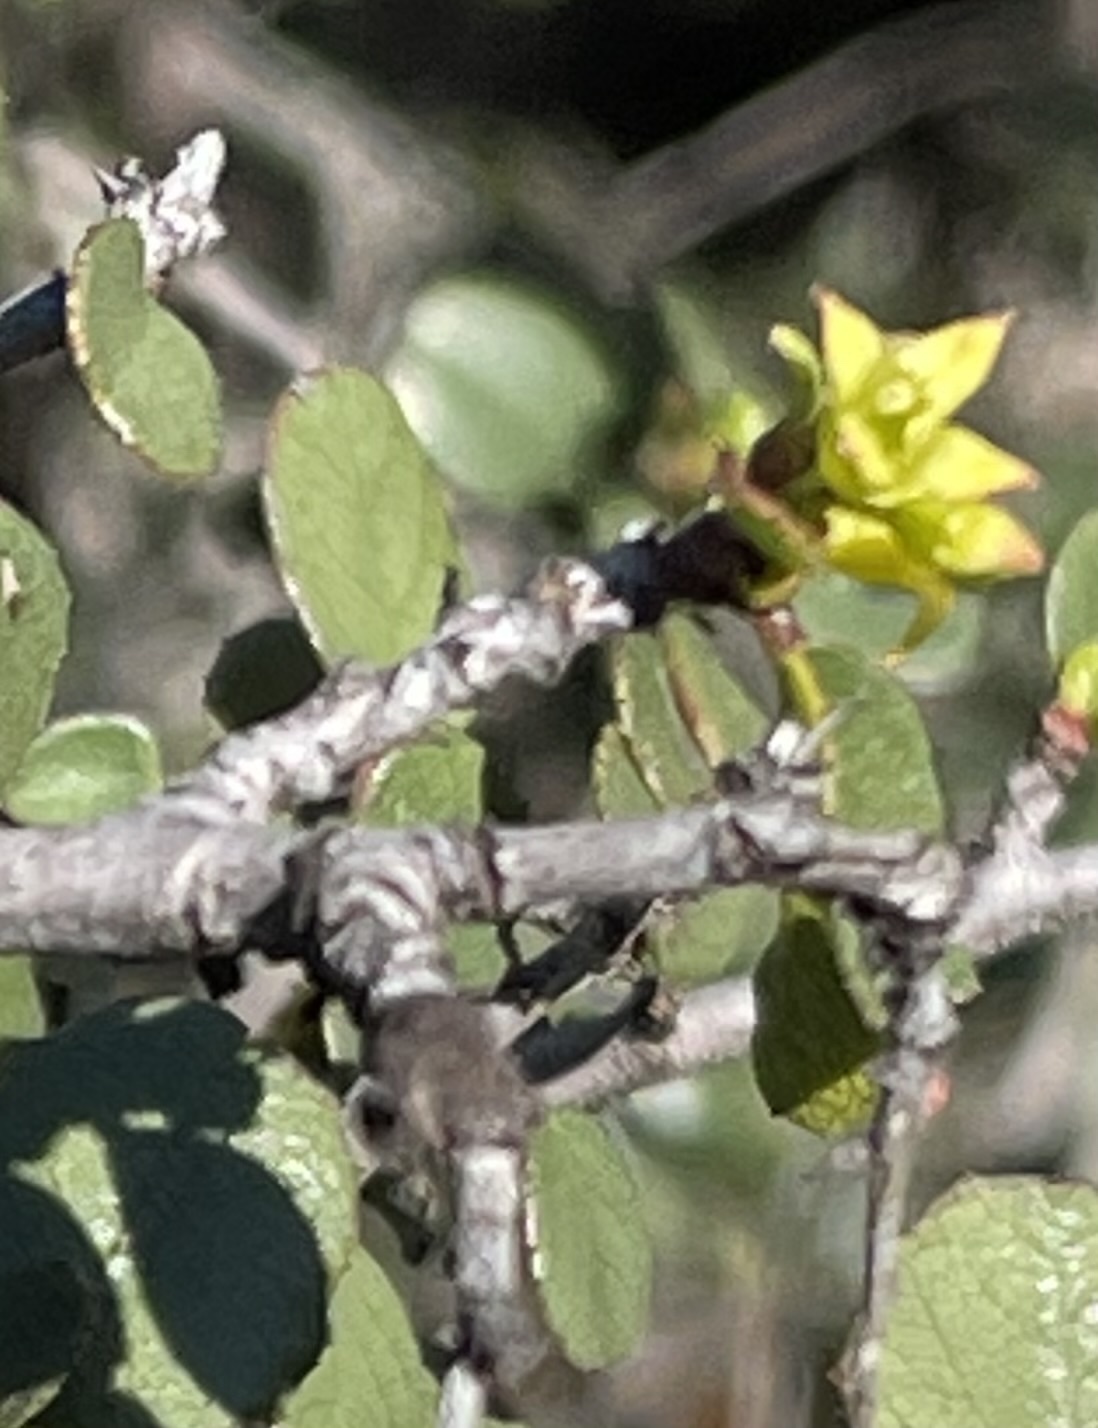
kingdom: Plantae
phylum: Tracheophyta
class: Magnoliopsida
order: Rosales
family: Rhamnaceae
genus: Endotropis
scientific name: Endotropis crocea
